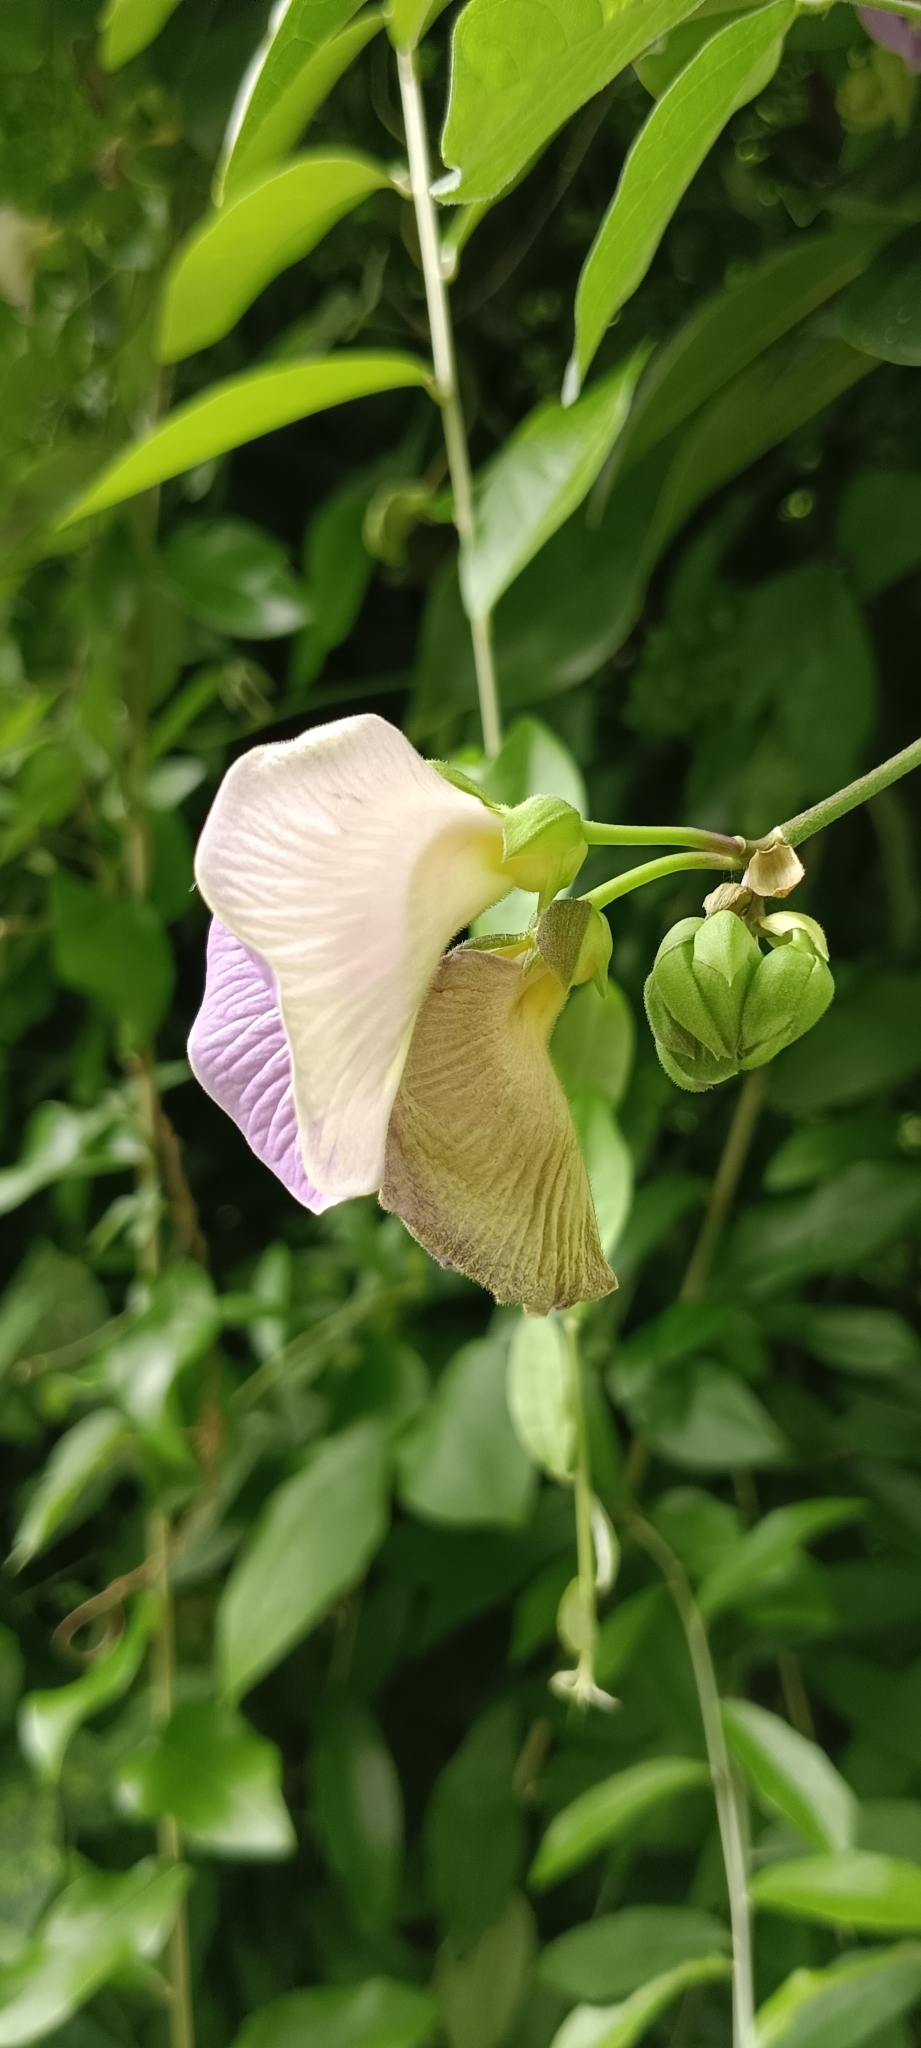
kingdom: Plantae
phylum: Tracheophyta
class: Magnoliopsida
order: Fabales
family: Fabaceae
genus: Centrosema
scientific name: Centrosema molle
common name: Soft butterfly pea
